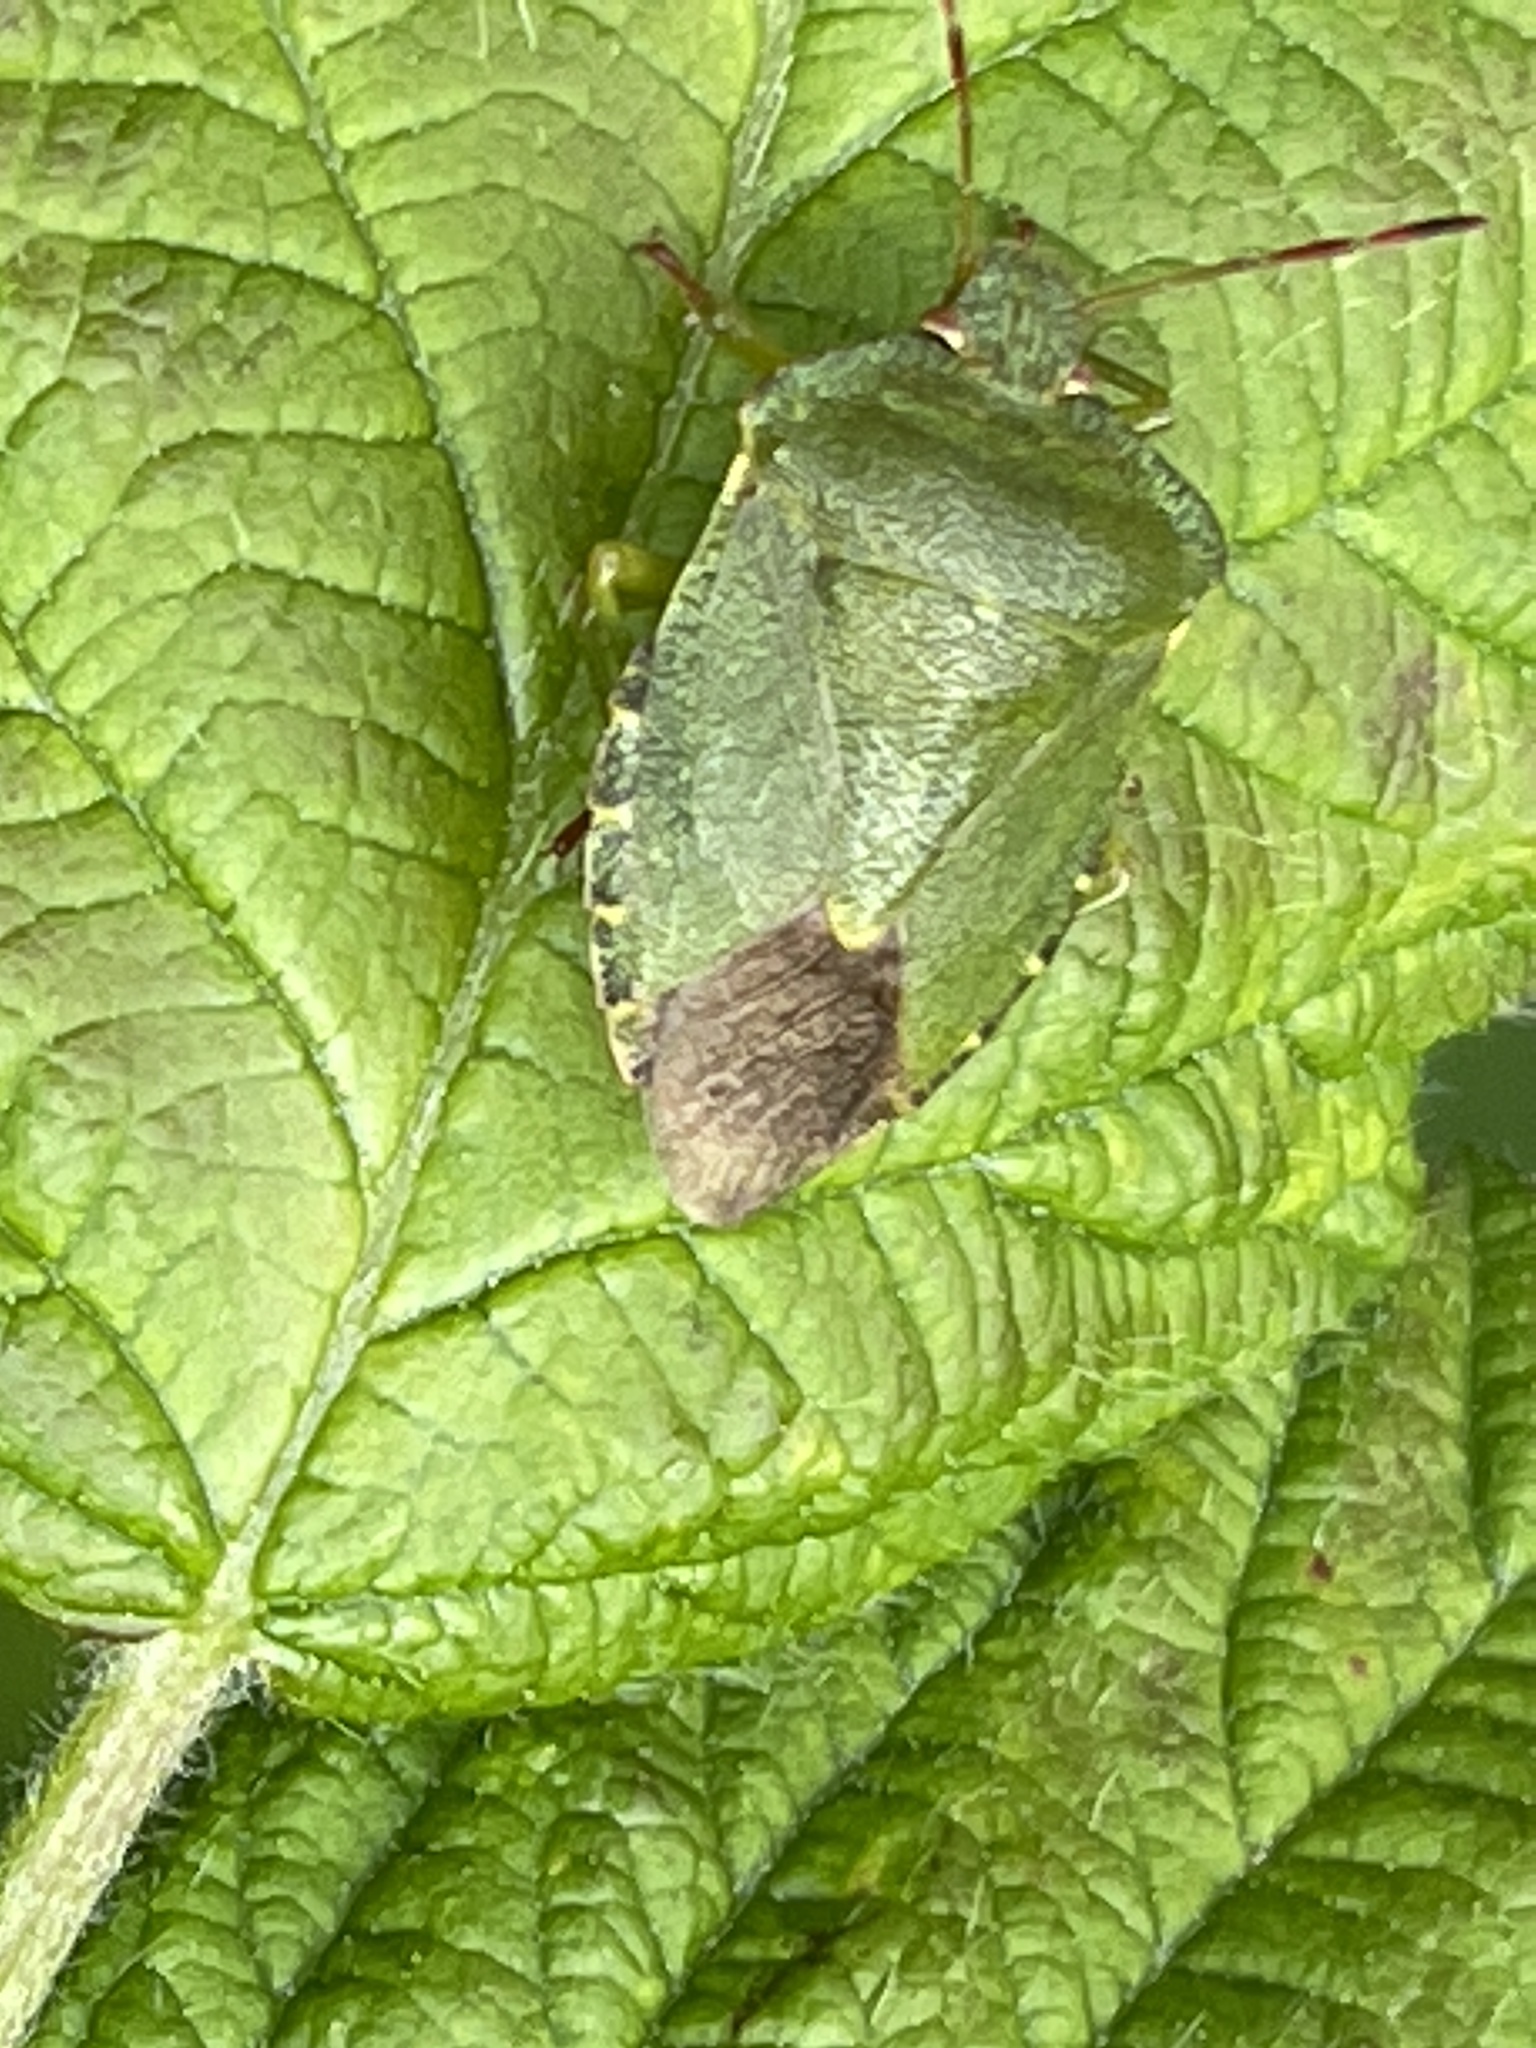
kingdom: Animalia
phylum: Arthropoda
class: Insecta
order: Hemiptera
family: Pentatomidae
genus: Palomena
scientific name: Palomena prasina
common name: Green shieldbug
